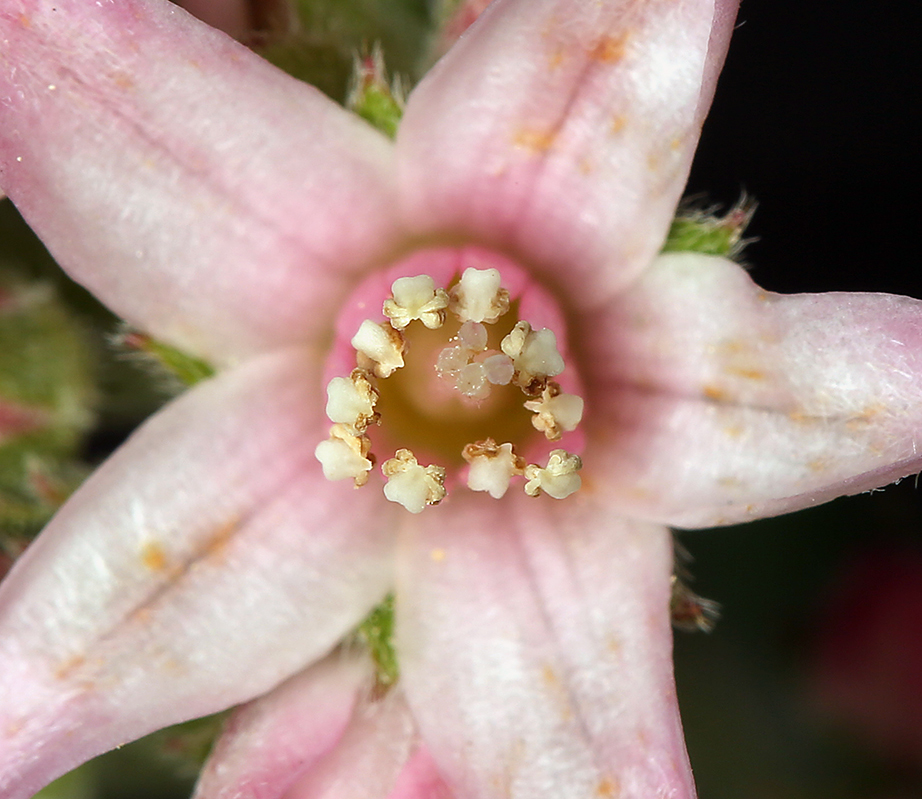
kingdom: Plantae
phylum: Tracheophyta
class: Magnoliopsida
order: Cornales
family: Hydrangeaceae
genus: Jamesia
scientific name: Jamesia americana
